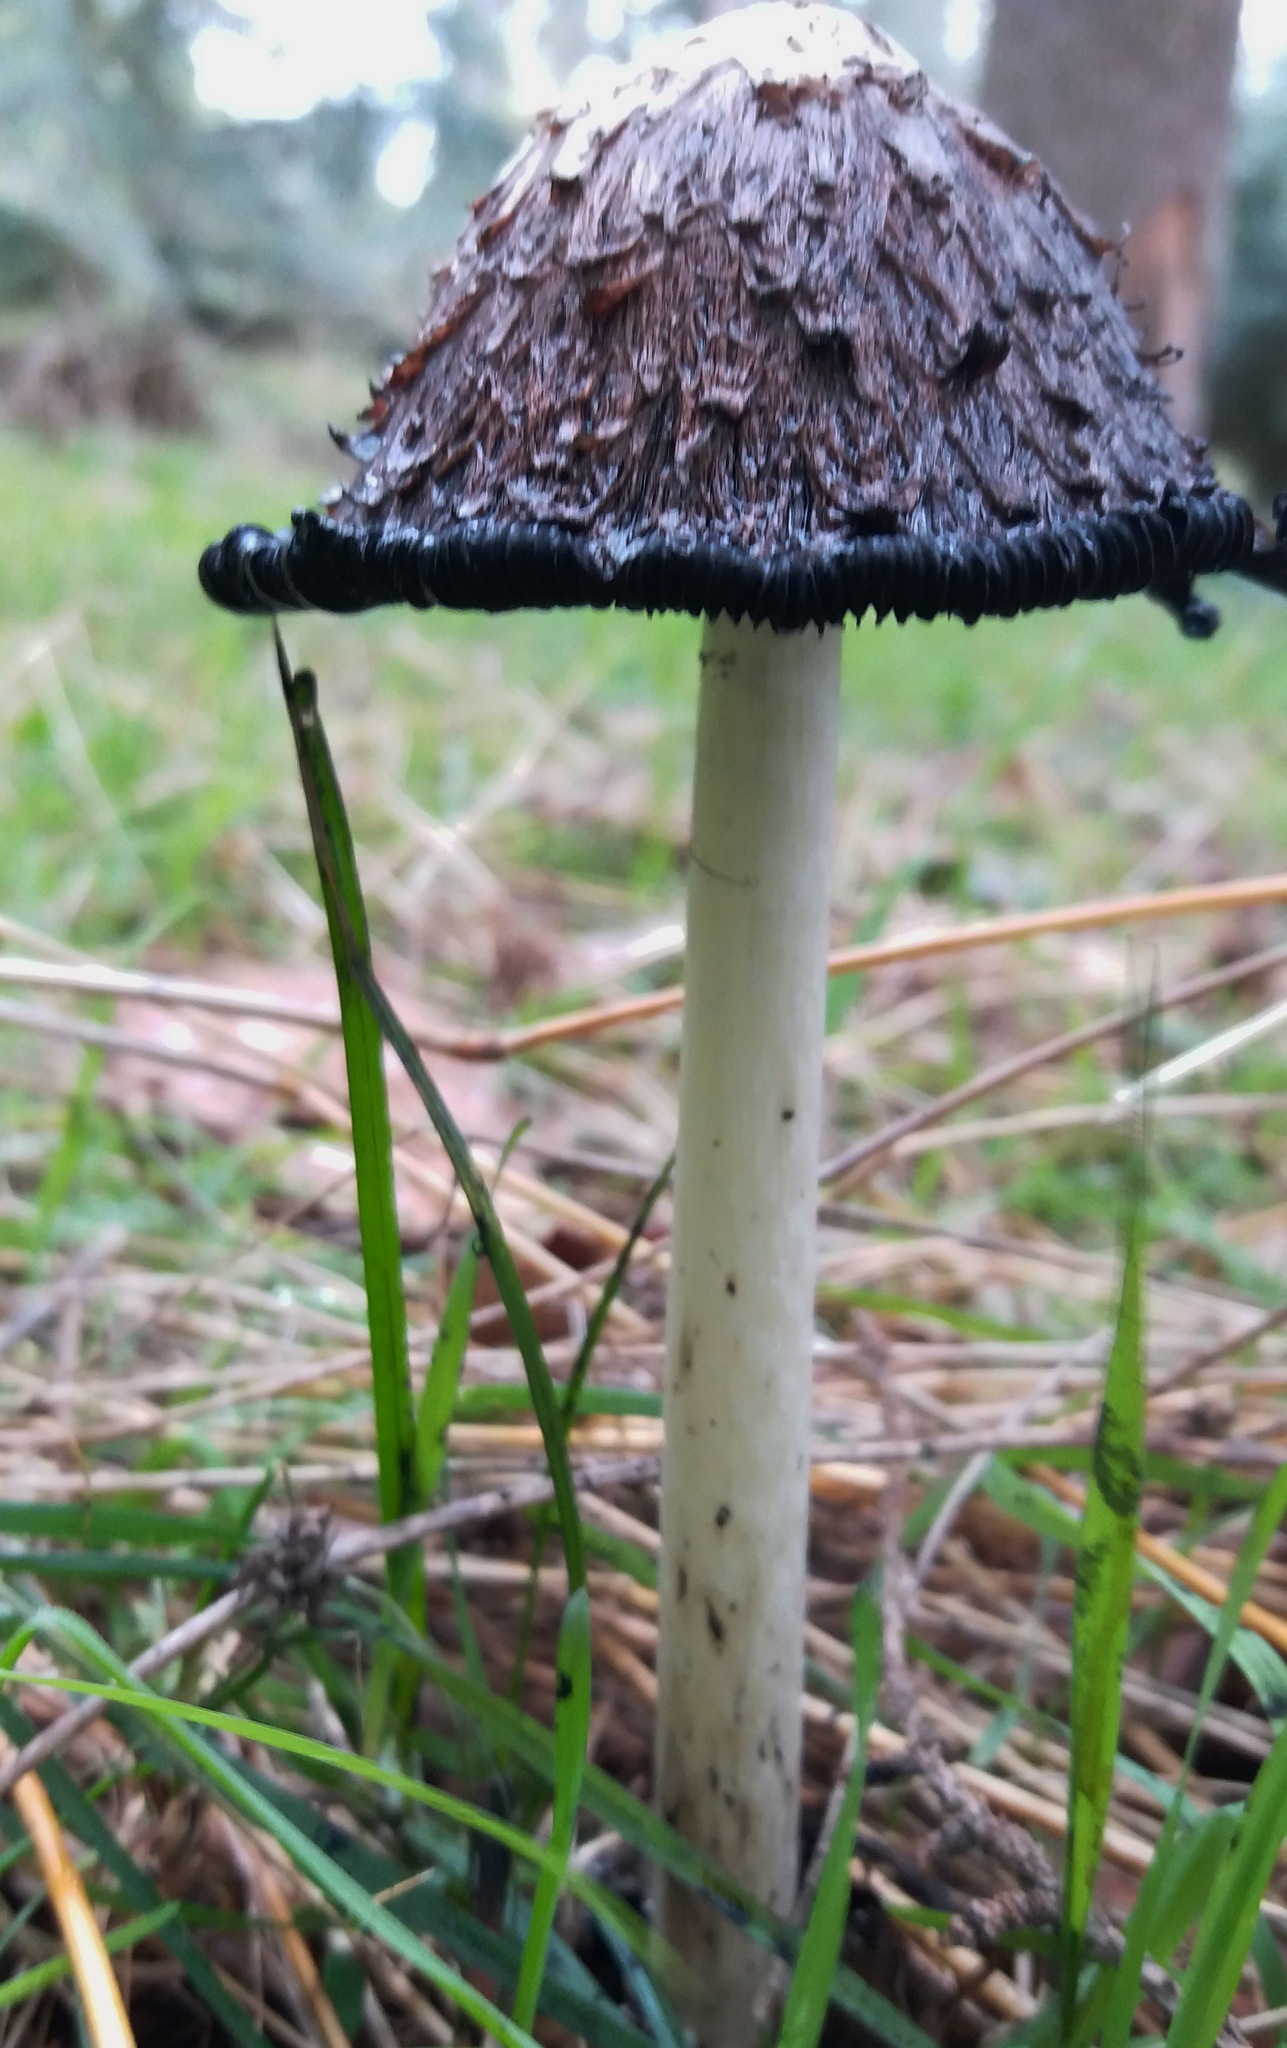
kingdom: Fungi
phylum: Basidiomycota
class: Agaricomycetes
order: Agaricales
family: Agaricaceae
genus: Coprinus
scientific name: Coprinus comatus
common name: Lawyer's wig
